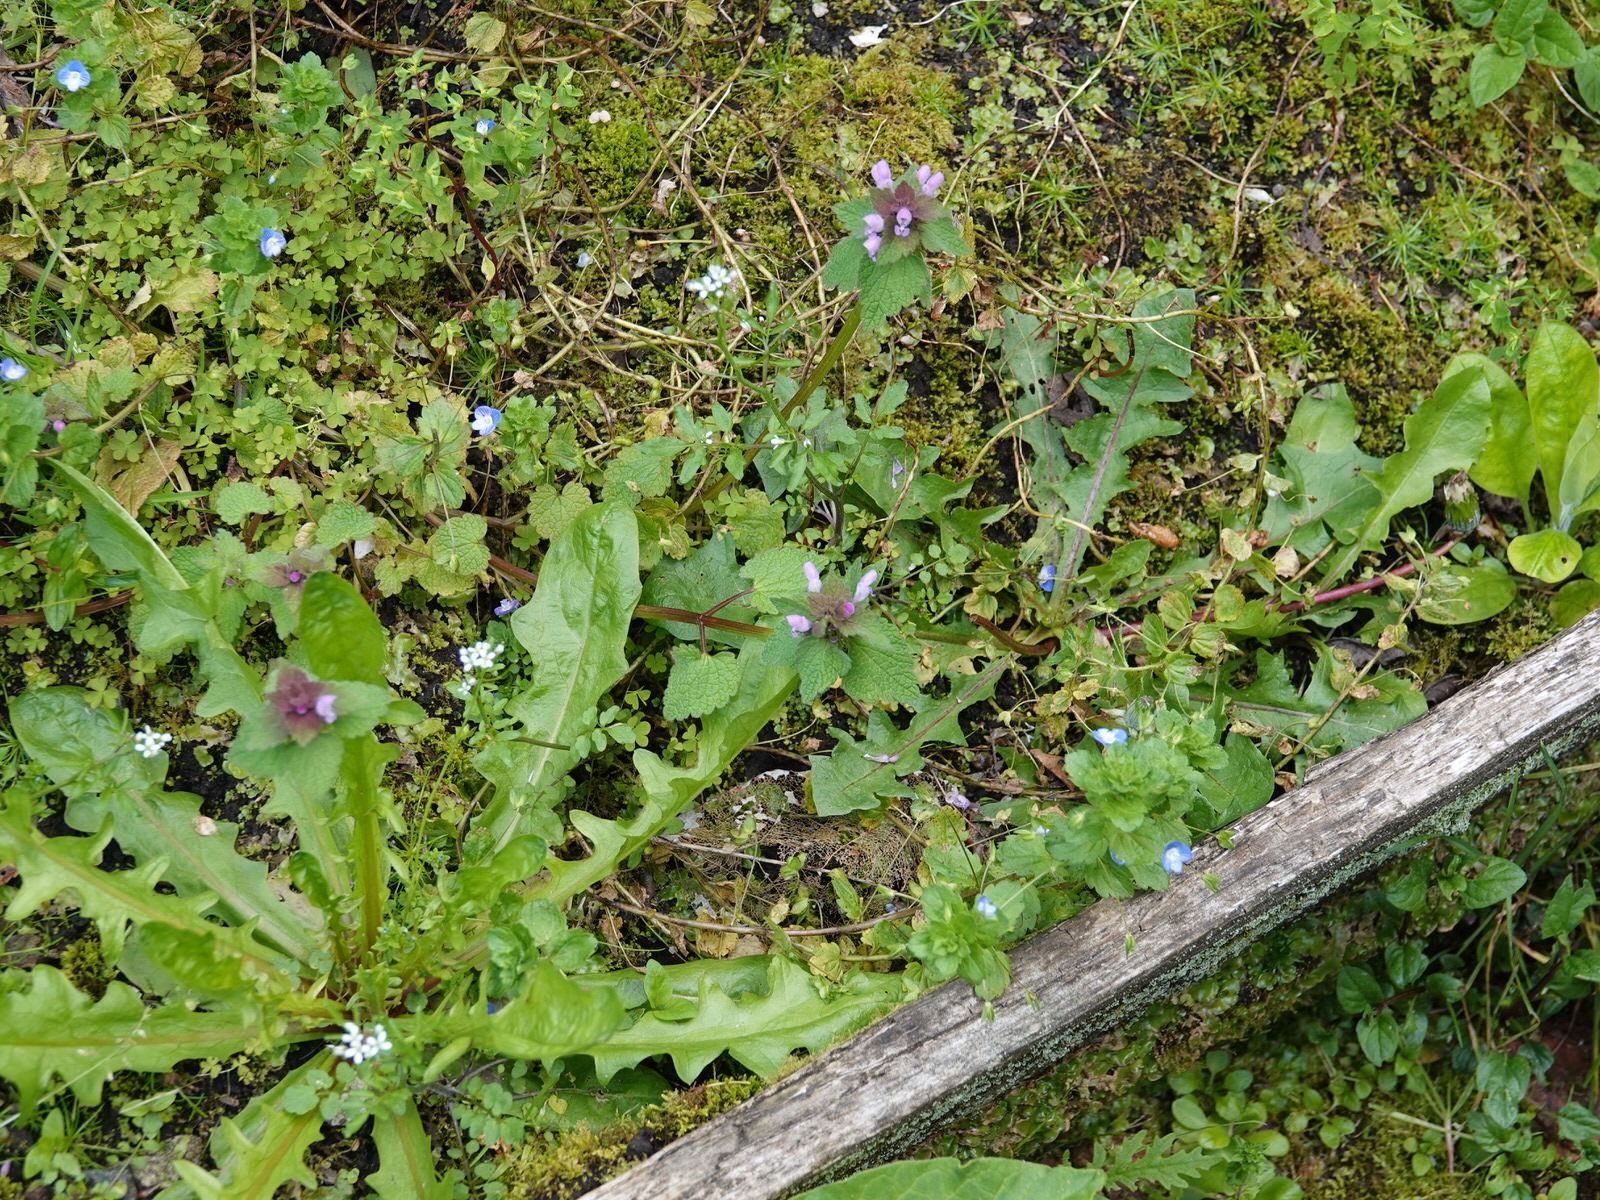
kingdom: Plantae
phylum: Tracheophyta
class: Magnoliopsida
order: Lamiales
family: Lamiaceae
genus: Lamium
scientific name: Lamium purpureum
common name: Red dead-nettle
